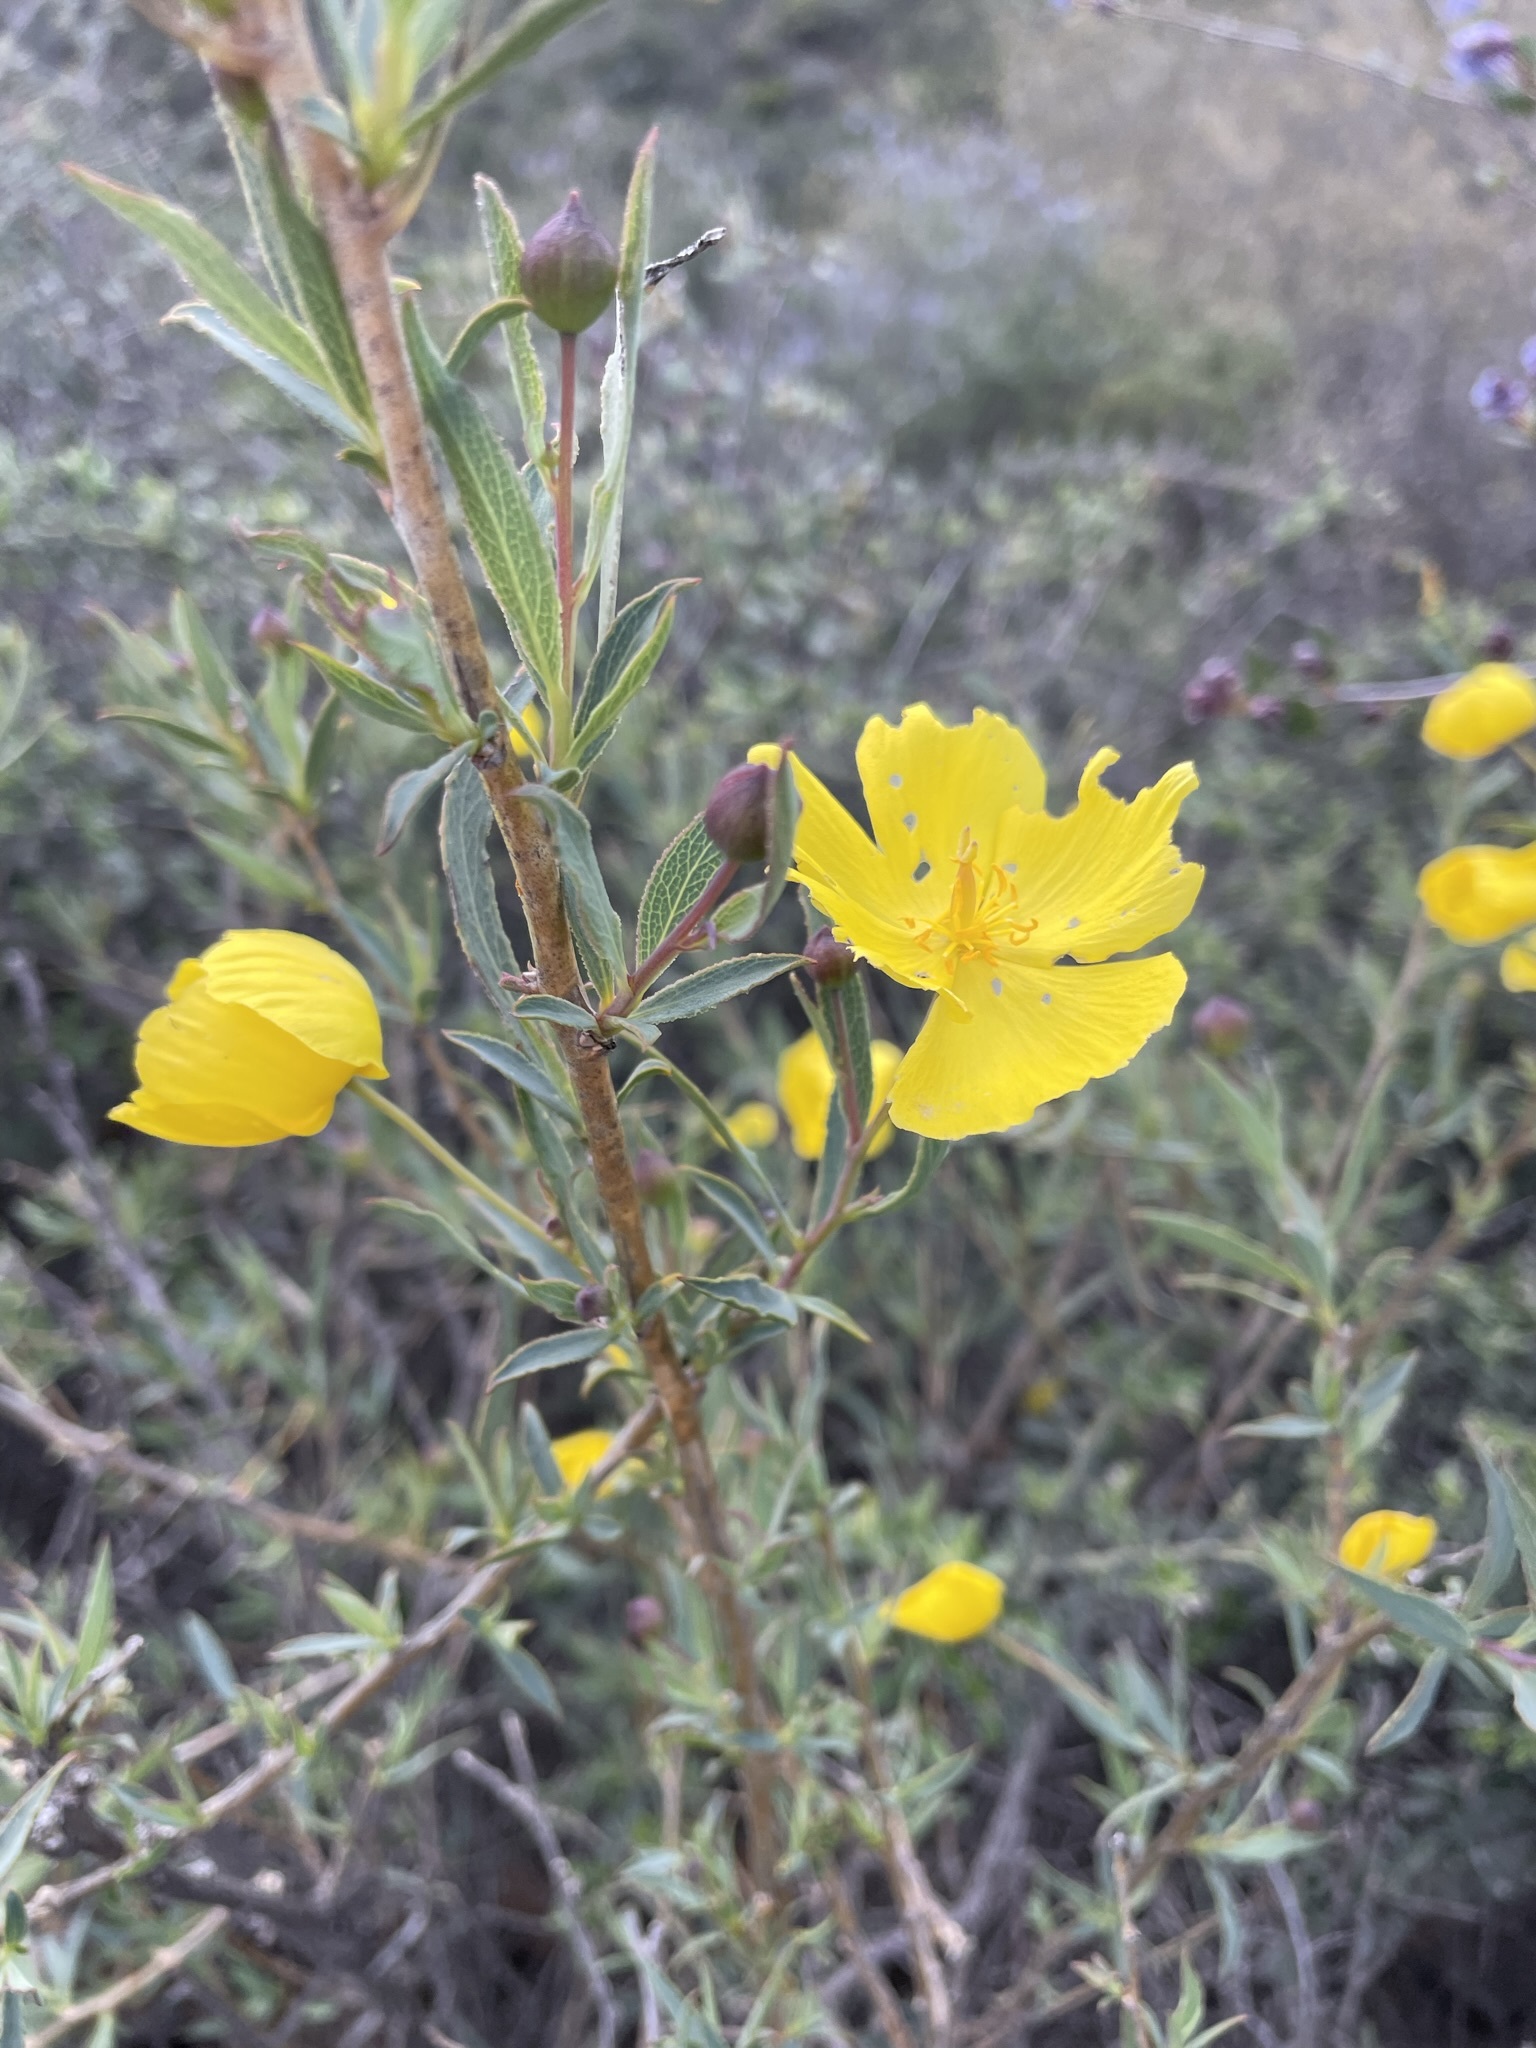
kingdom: Plantae
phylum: Tracheophyta
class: Magnoliopsida
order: Ranunculales
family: Papaveraceae
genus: Dendromecon
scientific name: Dendromecon rigida
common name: Tree poppy
